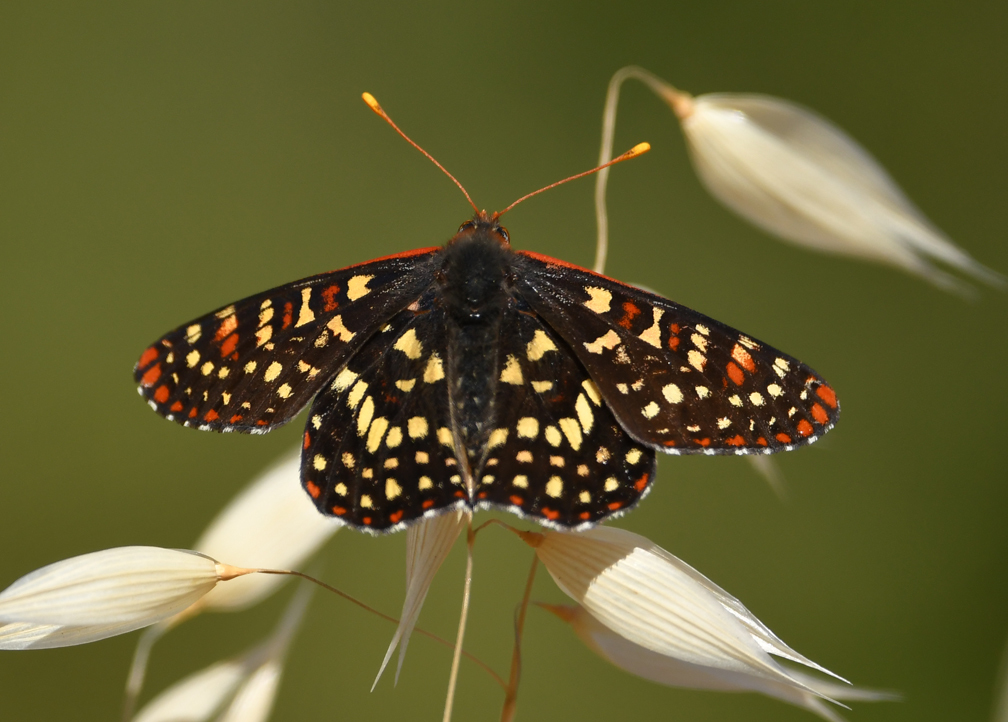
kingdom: Animalia
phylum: Arthropoda
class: Insecta
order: Lepidoptera
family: Nymphalidae
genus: Occidryas
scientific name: Occidryas chalcedona
